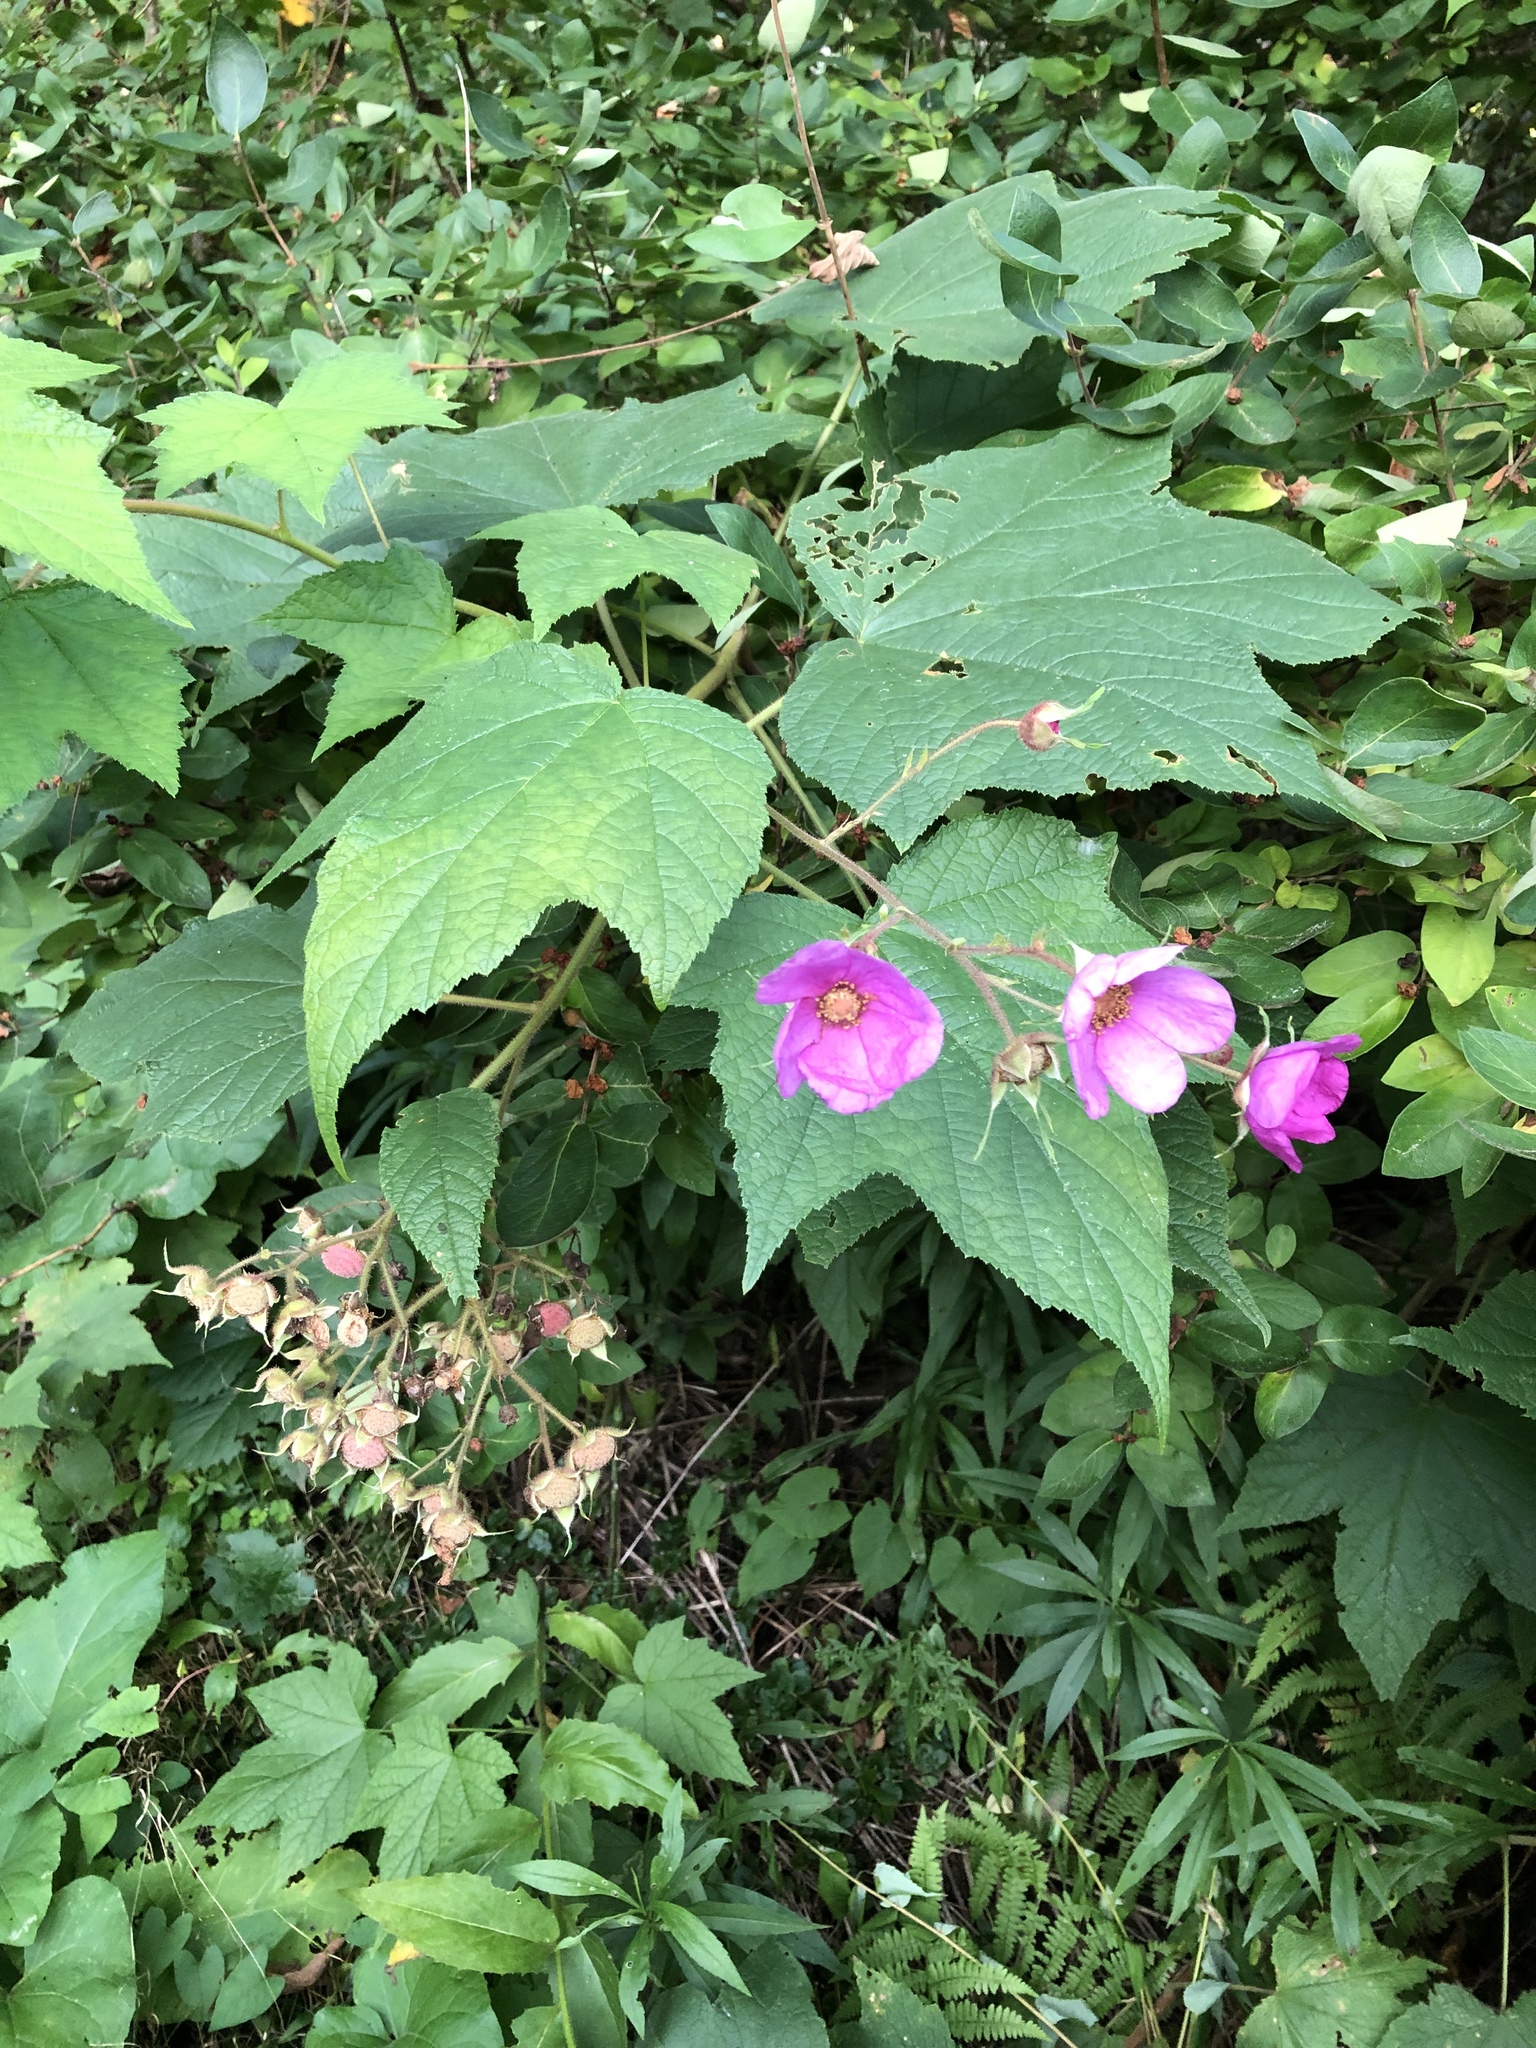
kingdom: Plantae
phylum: Tracheophyta
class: Magnoliopsida
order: Rosales
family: Rosaceae
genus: Rubus
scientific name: Rubus odoratus
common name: Purple-flowered raspberry
